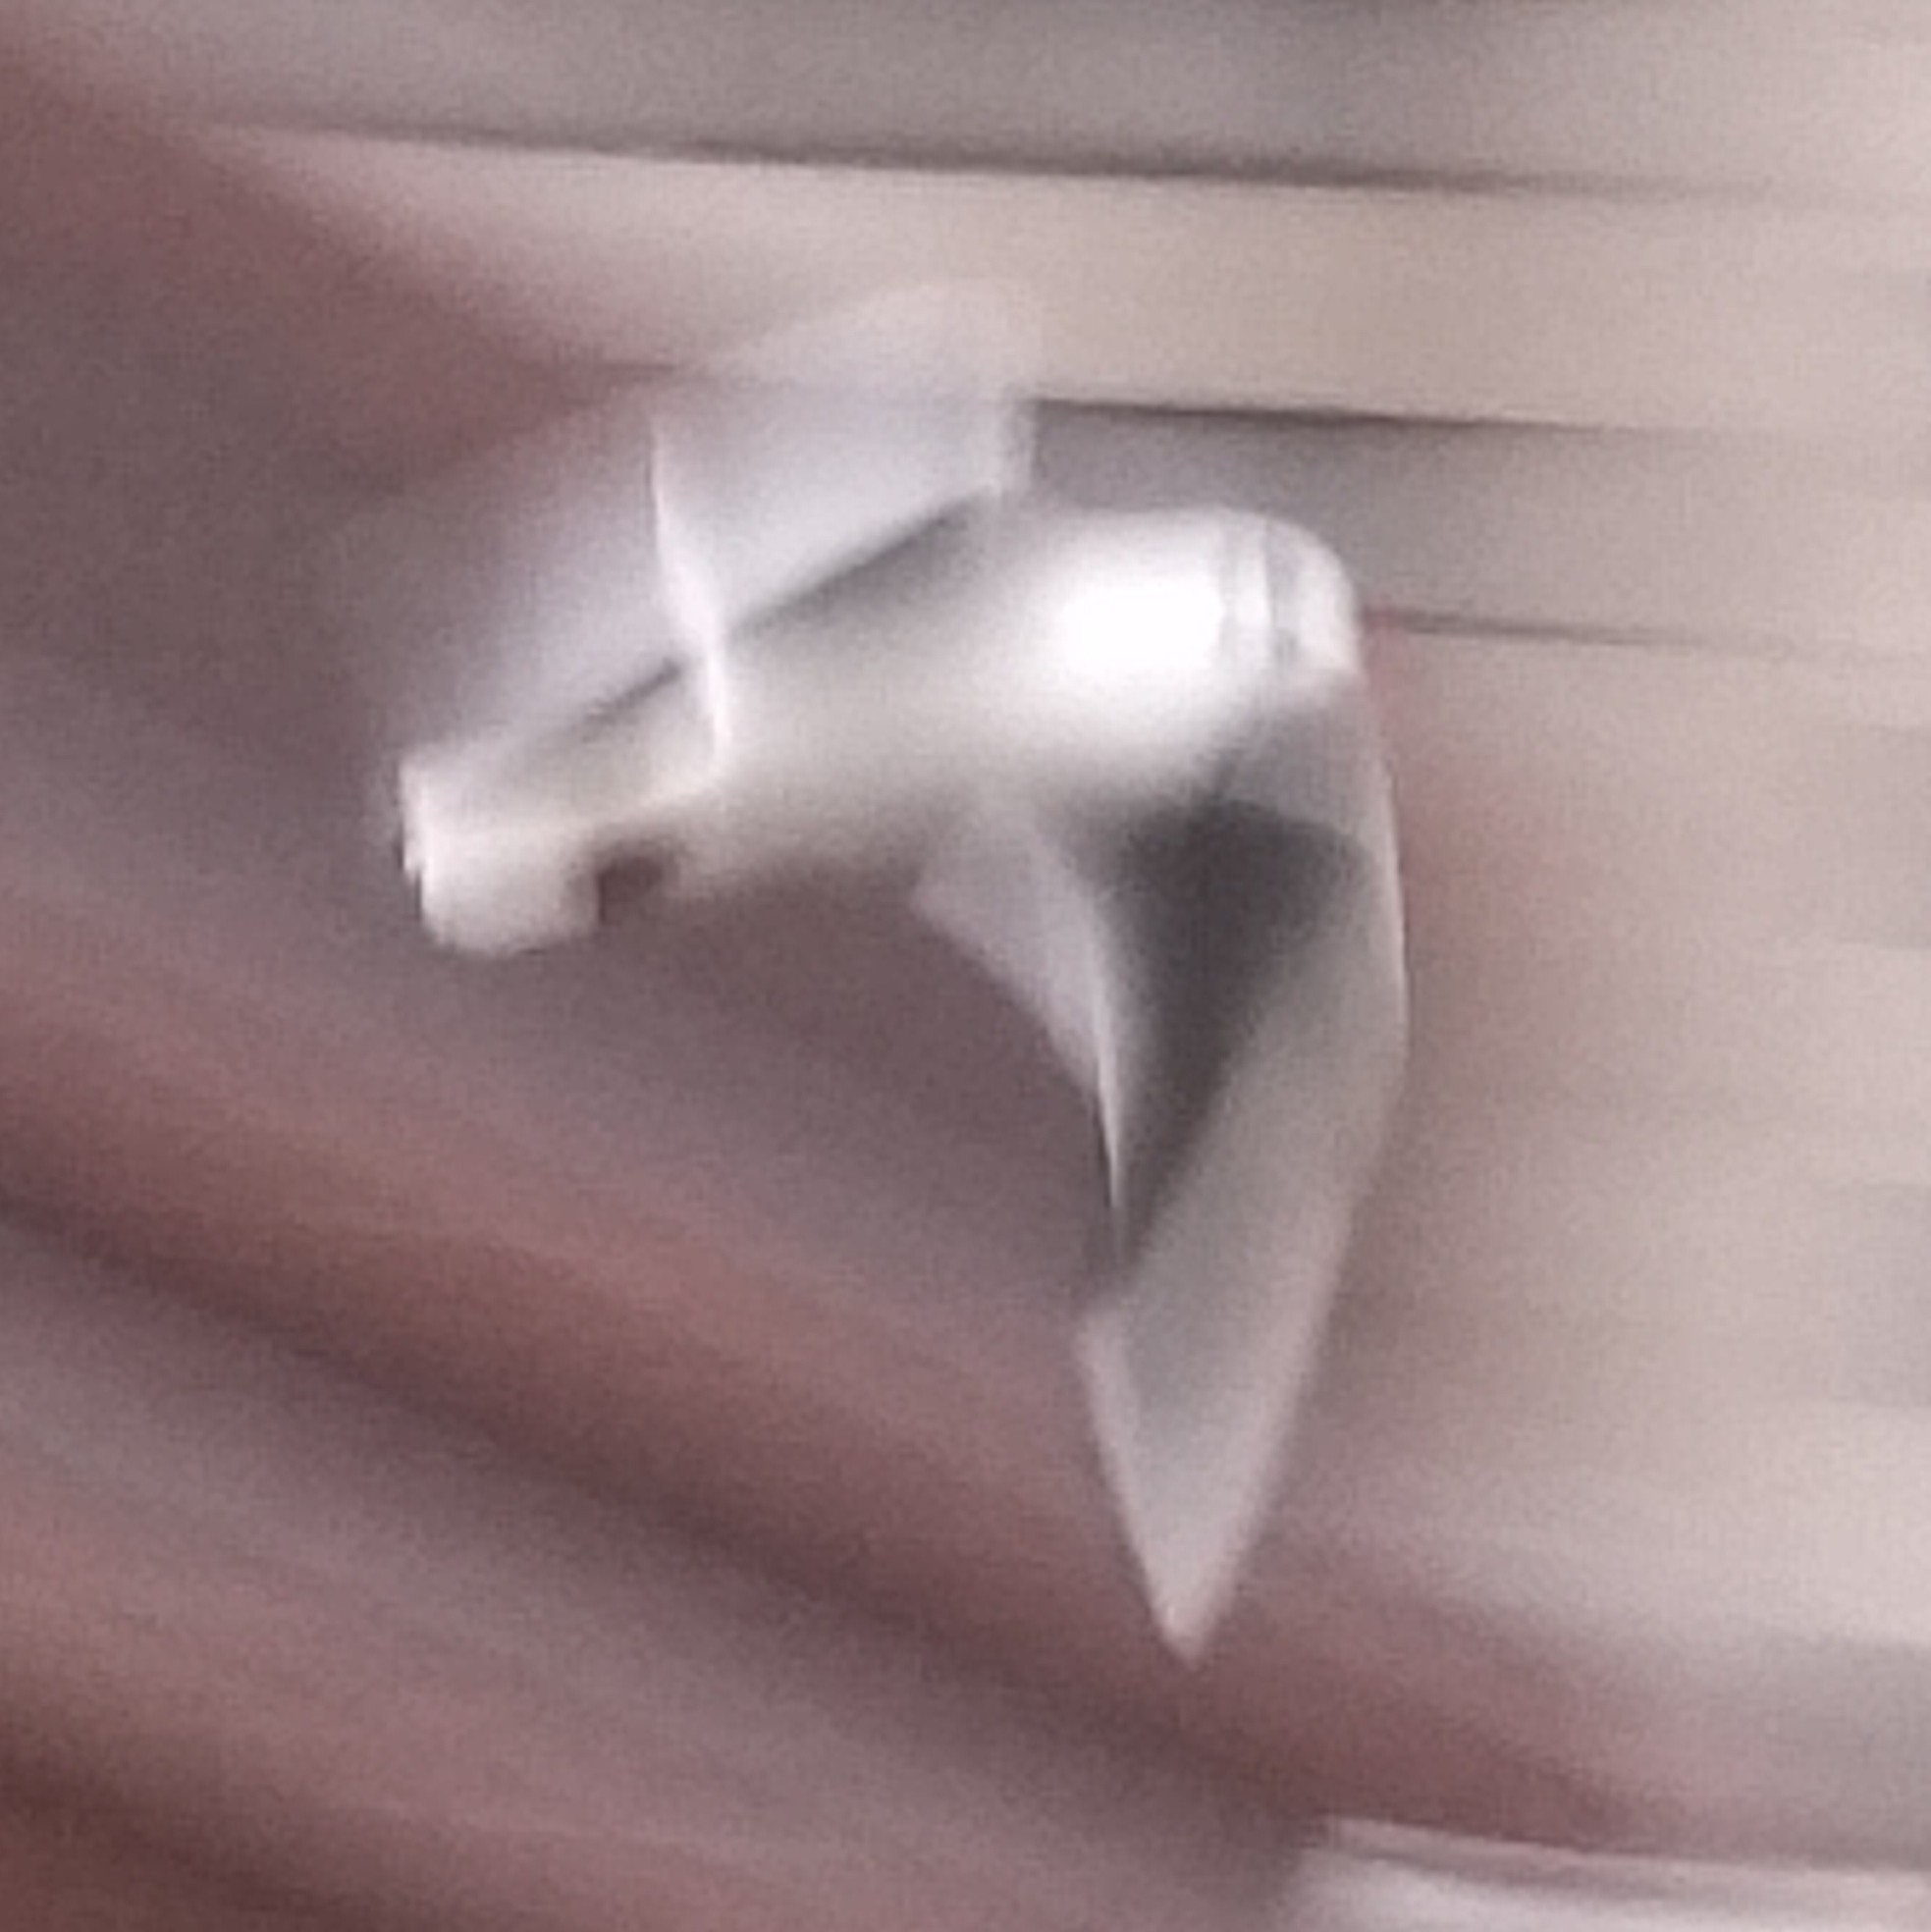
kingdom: Animalia
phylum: Chordata
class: Aves
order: Charadriiformes
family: Laridae
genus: Chroicocephalus
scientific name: Chroicocephalus ridibundus
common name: Black-headed gull
